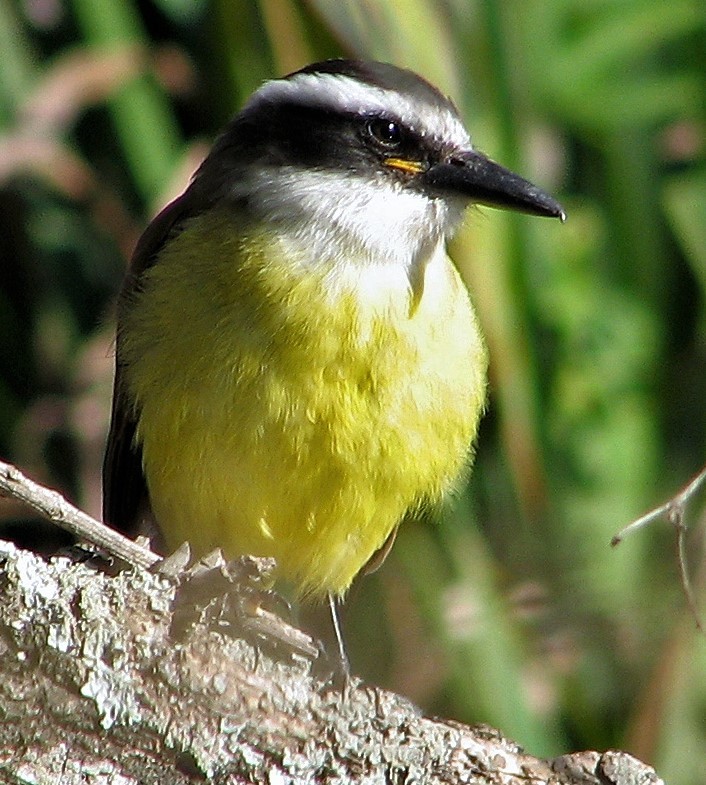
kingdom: Animalia
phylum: Chordata
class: Aves
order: Passeriformes
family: Tyrannidae
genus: Pitangus
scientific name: Pitangus sulphuratus
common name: Great kiskadee
